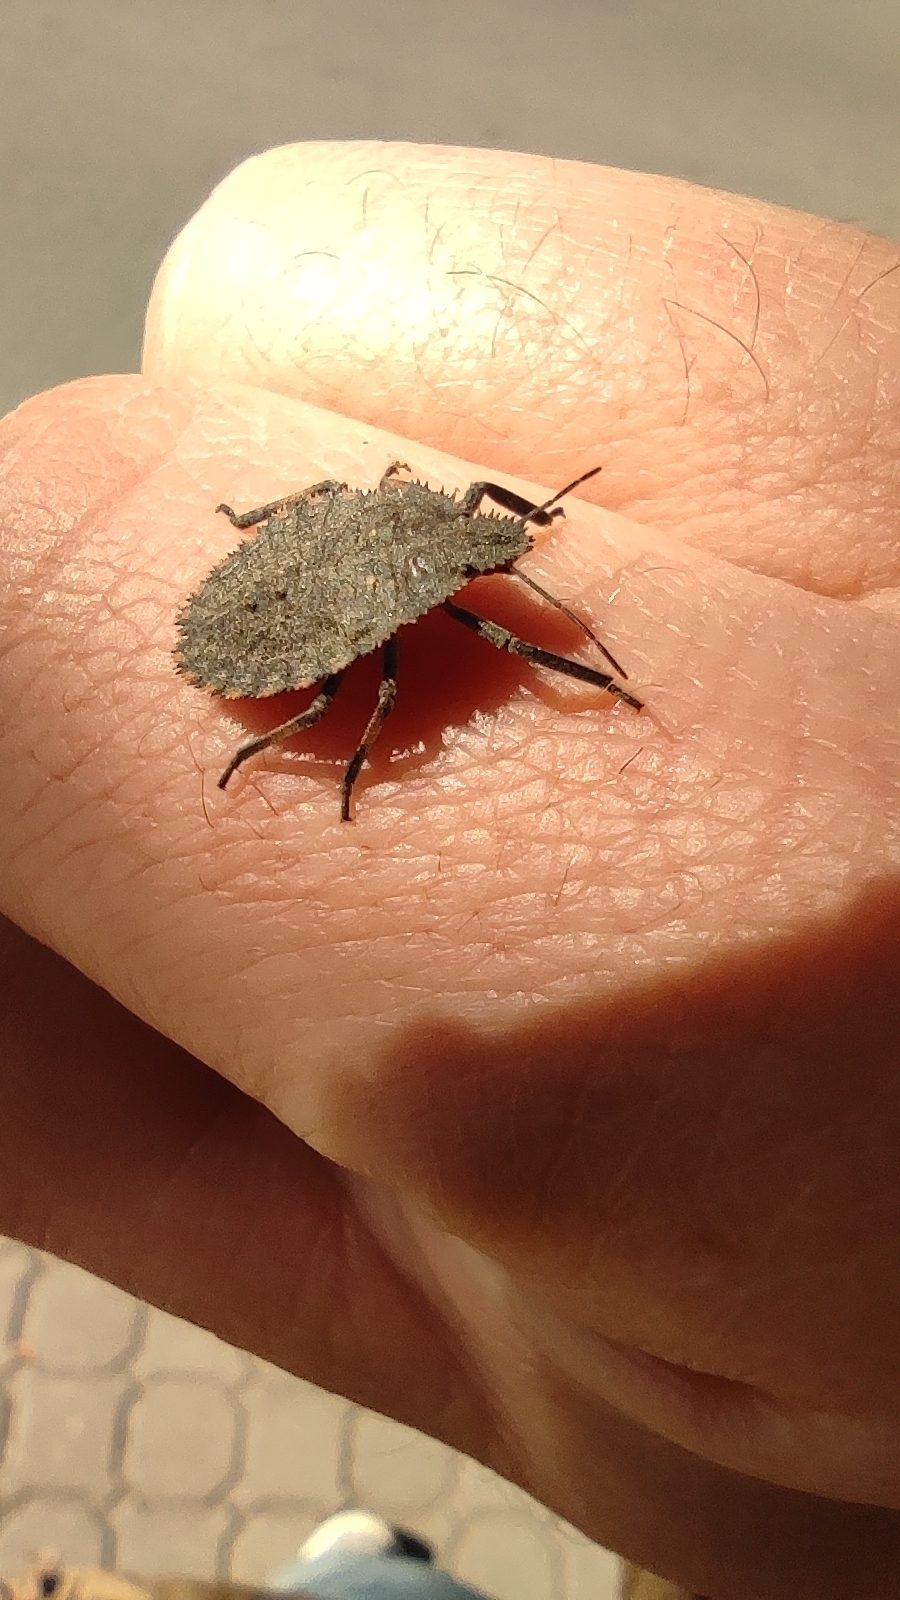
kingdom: Animalia
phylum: Arthropoda
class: Insecta
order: Hemiptera
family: Pentatomidae
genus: Mustha
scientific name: Mustha spinosula
